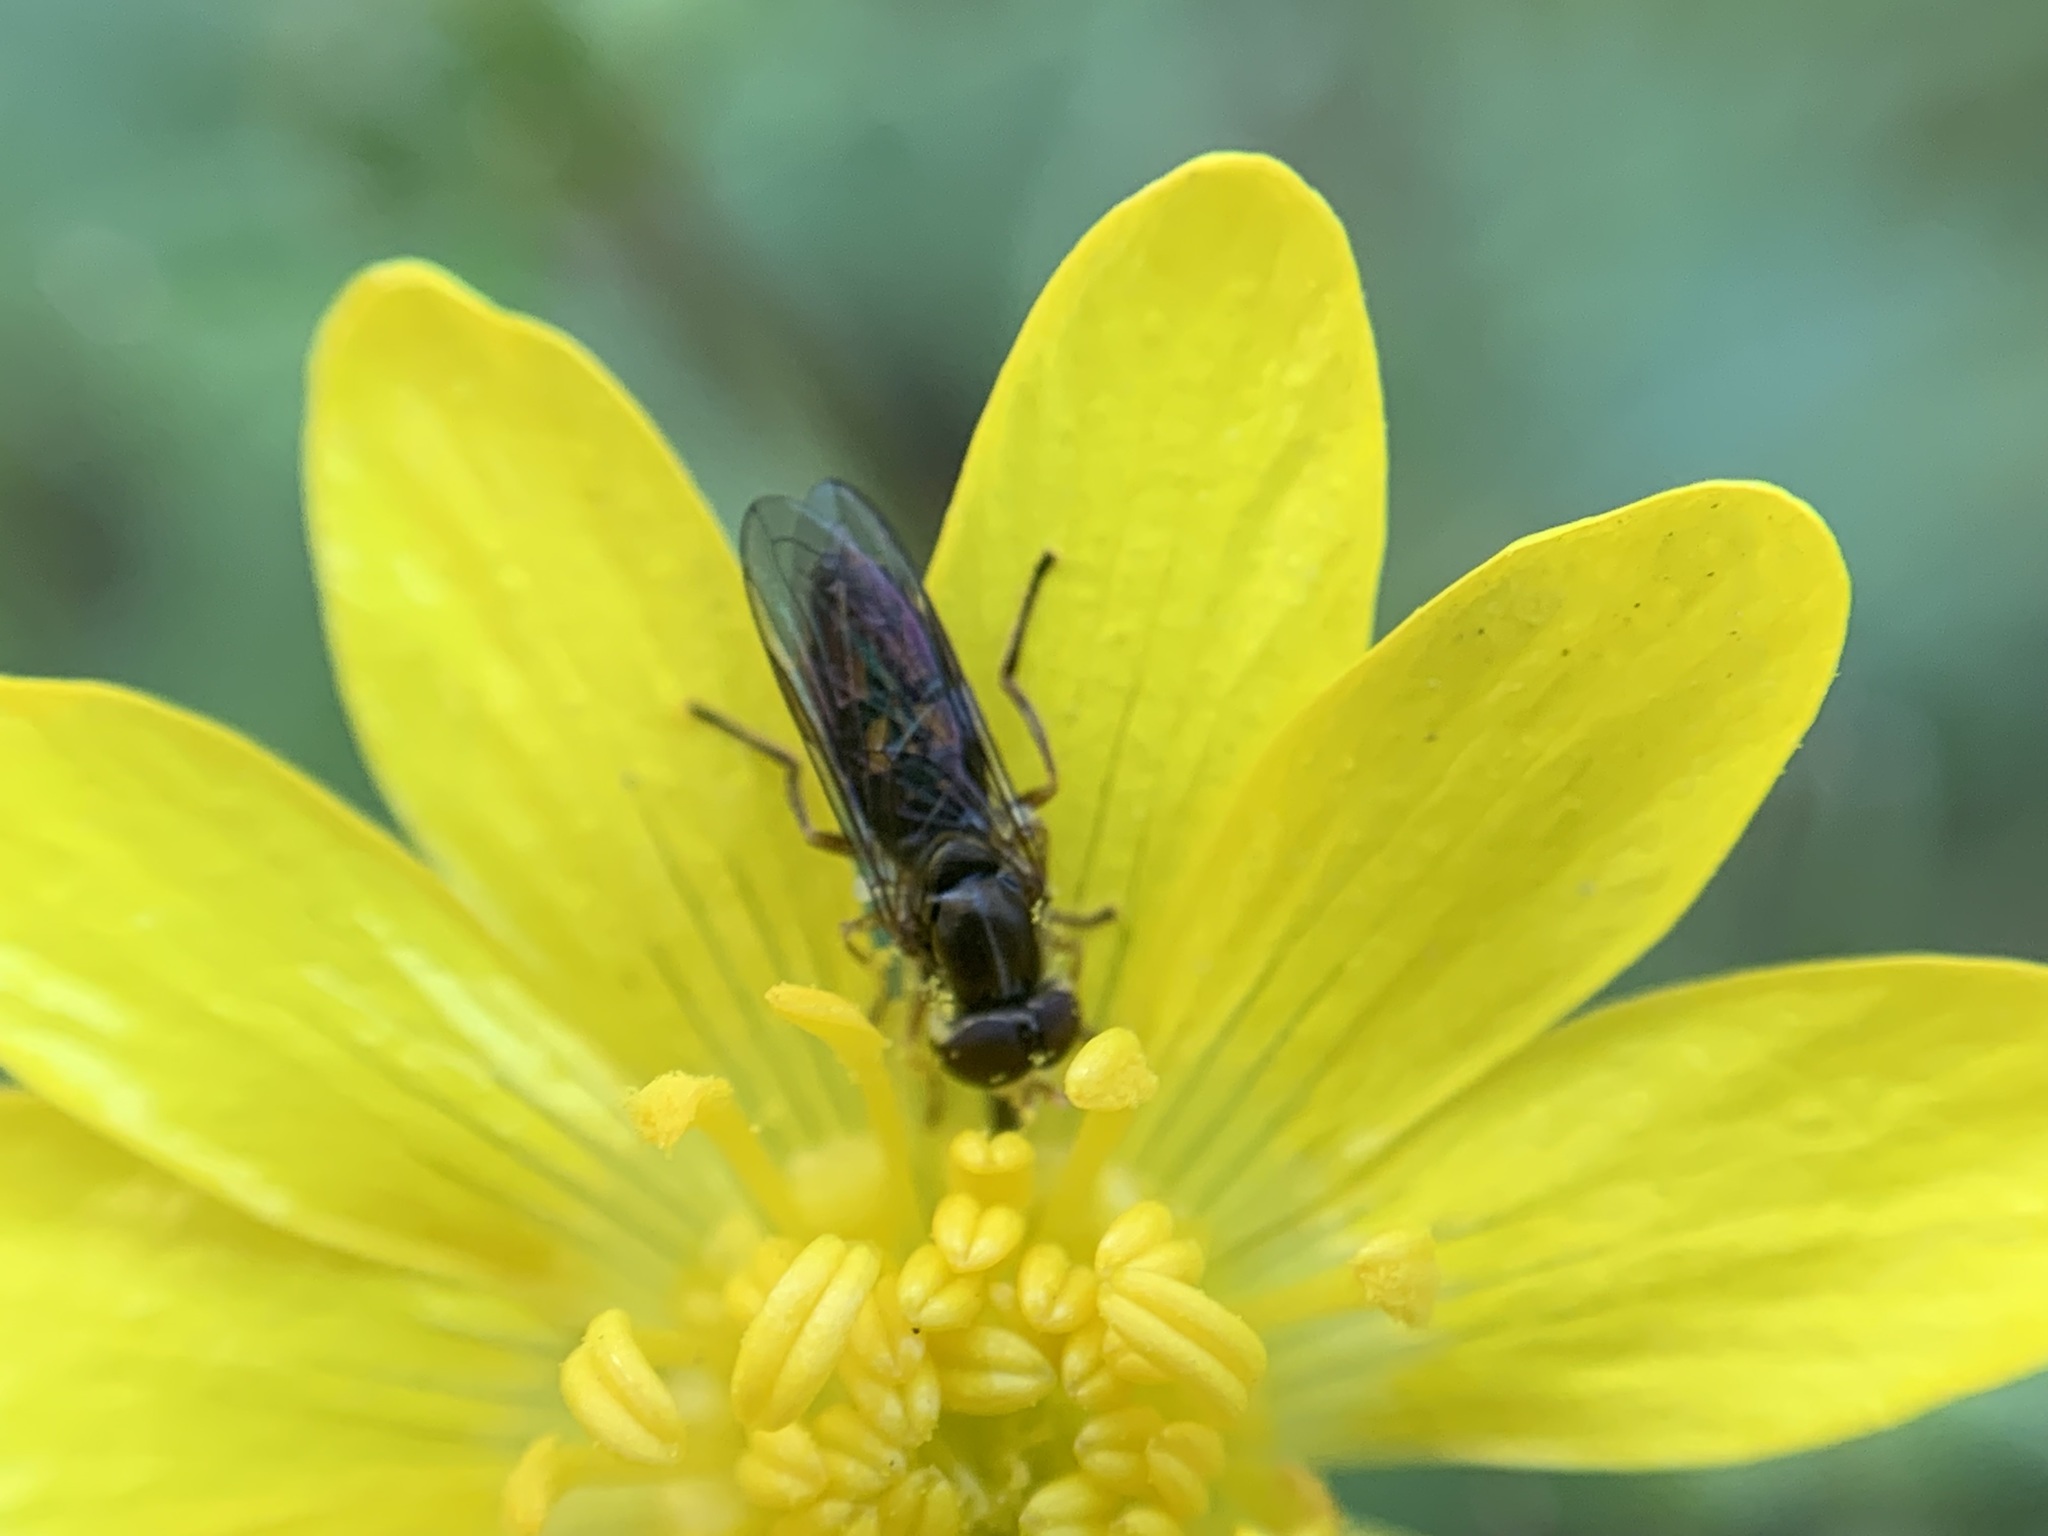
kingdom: Animalia
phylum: Arthropoda
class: Insecta
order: Diptera
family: Syrphidae
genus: Toxomerus
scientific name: Toxomerus marginatus
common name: Syrphid fly
